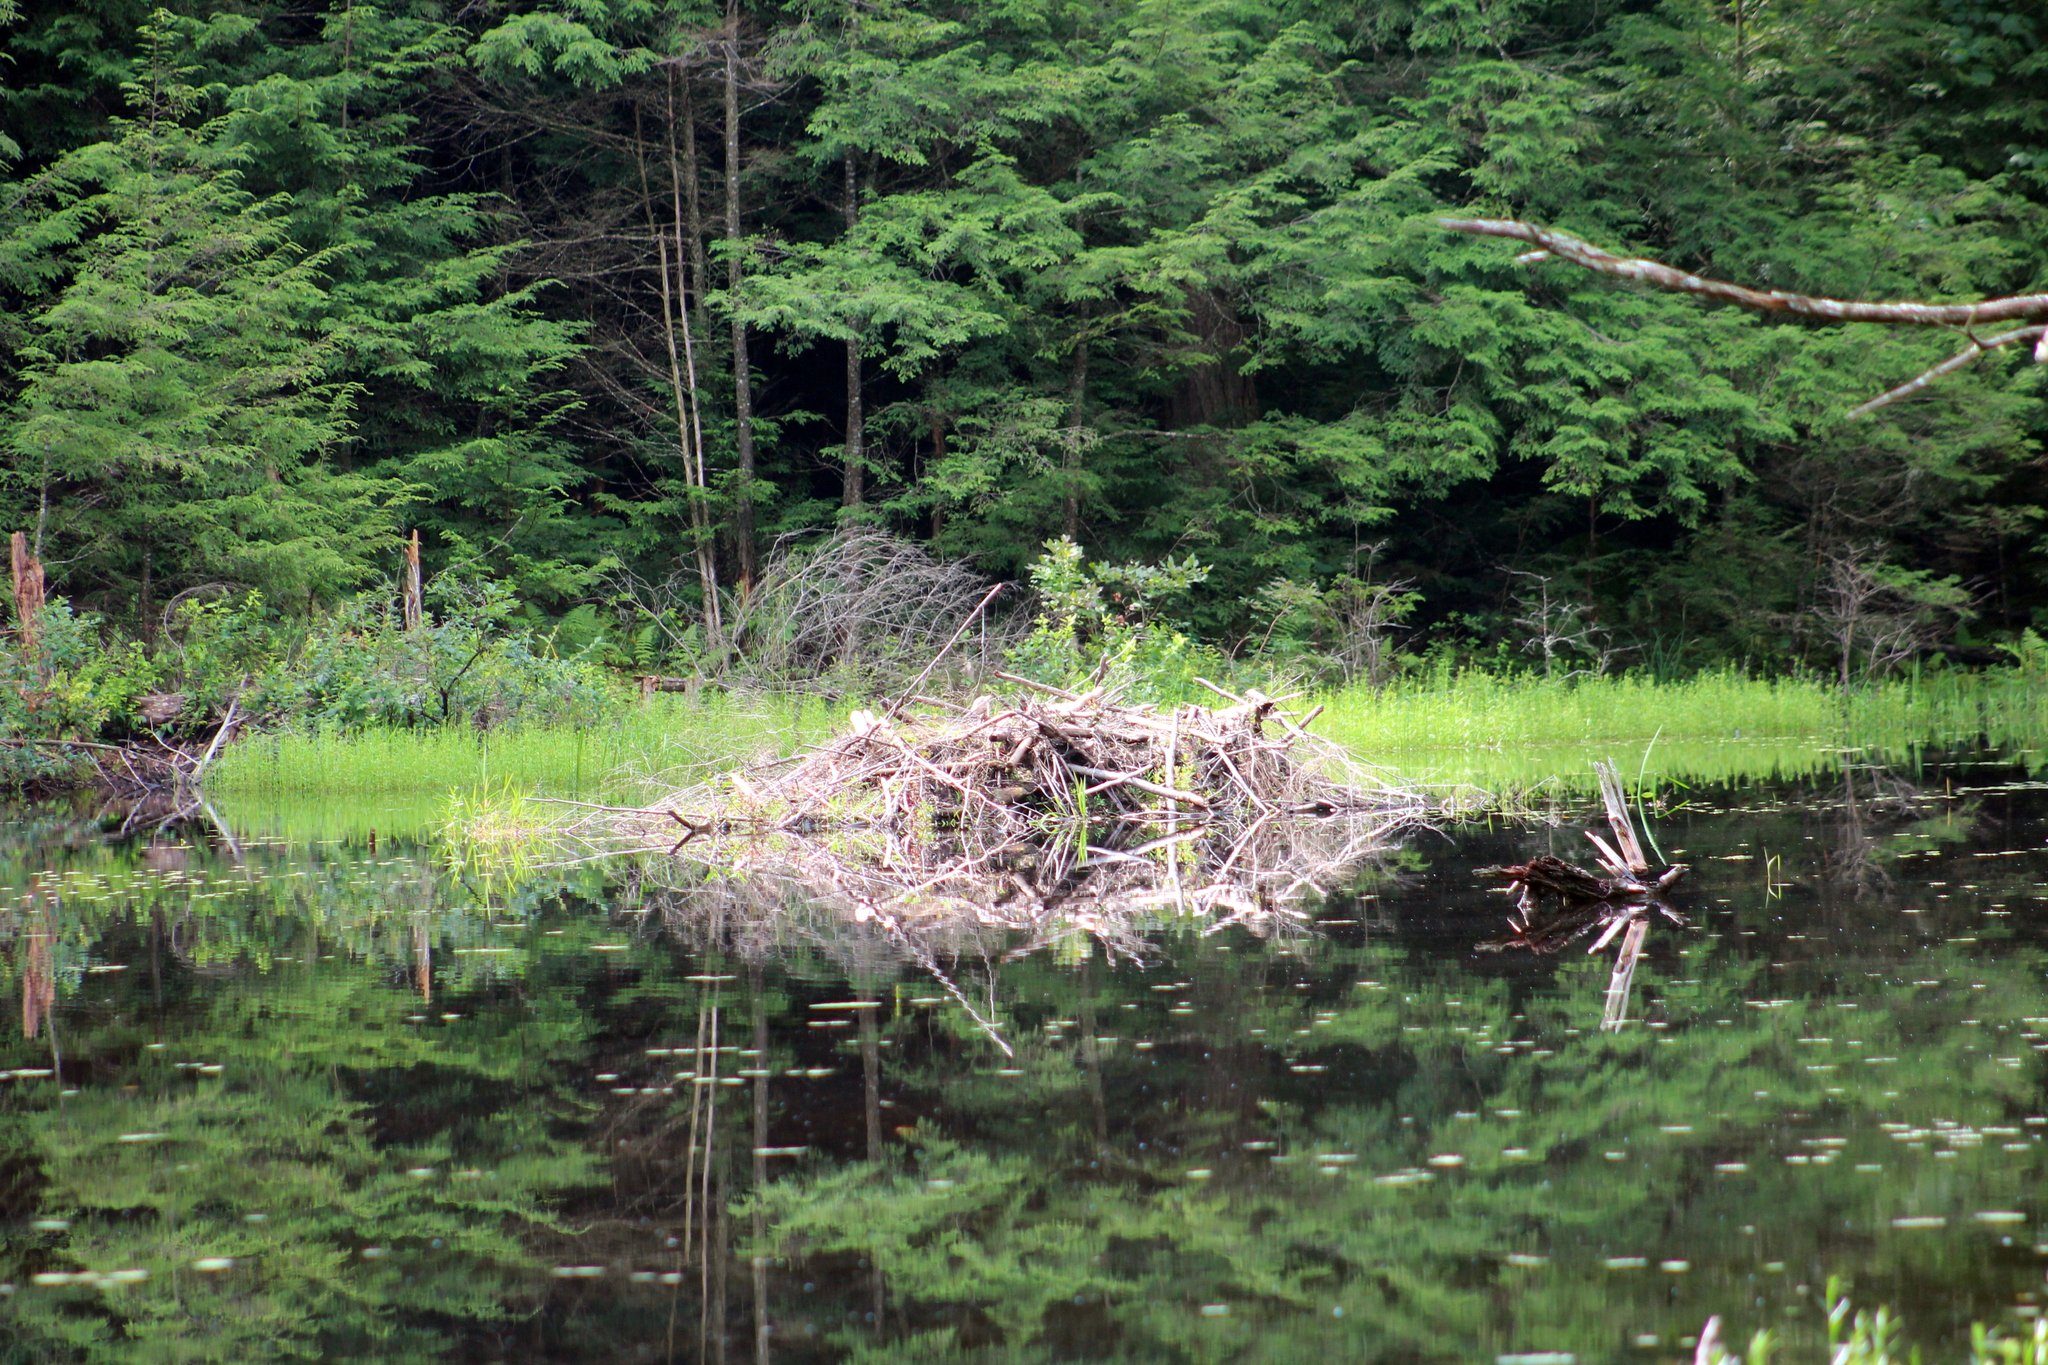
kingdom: Animalia
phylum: Chordata
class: Mammalia
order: Rodentia
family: Castoridae
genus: Castor
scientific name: Castor canadensis
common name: American beaver
